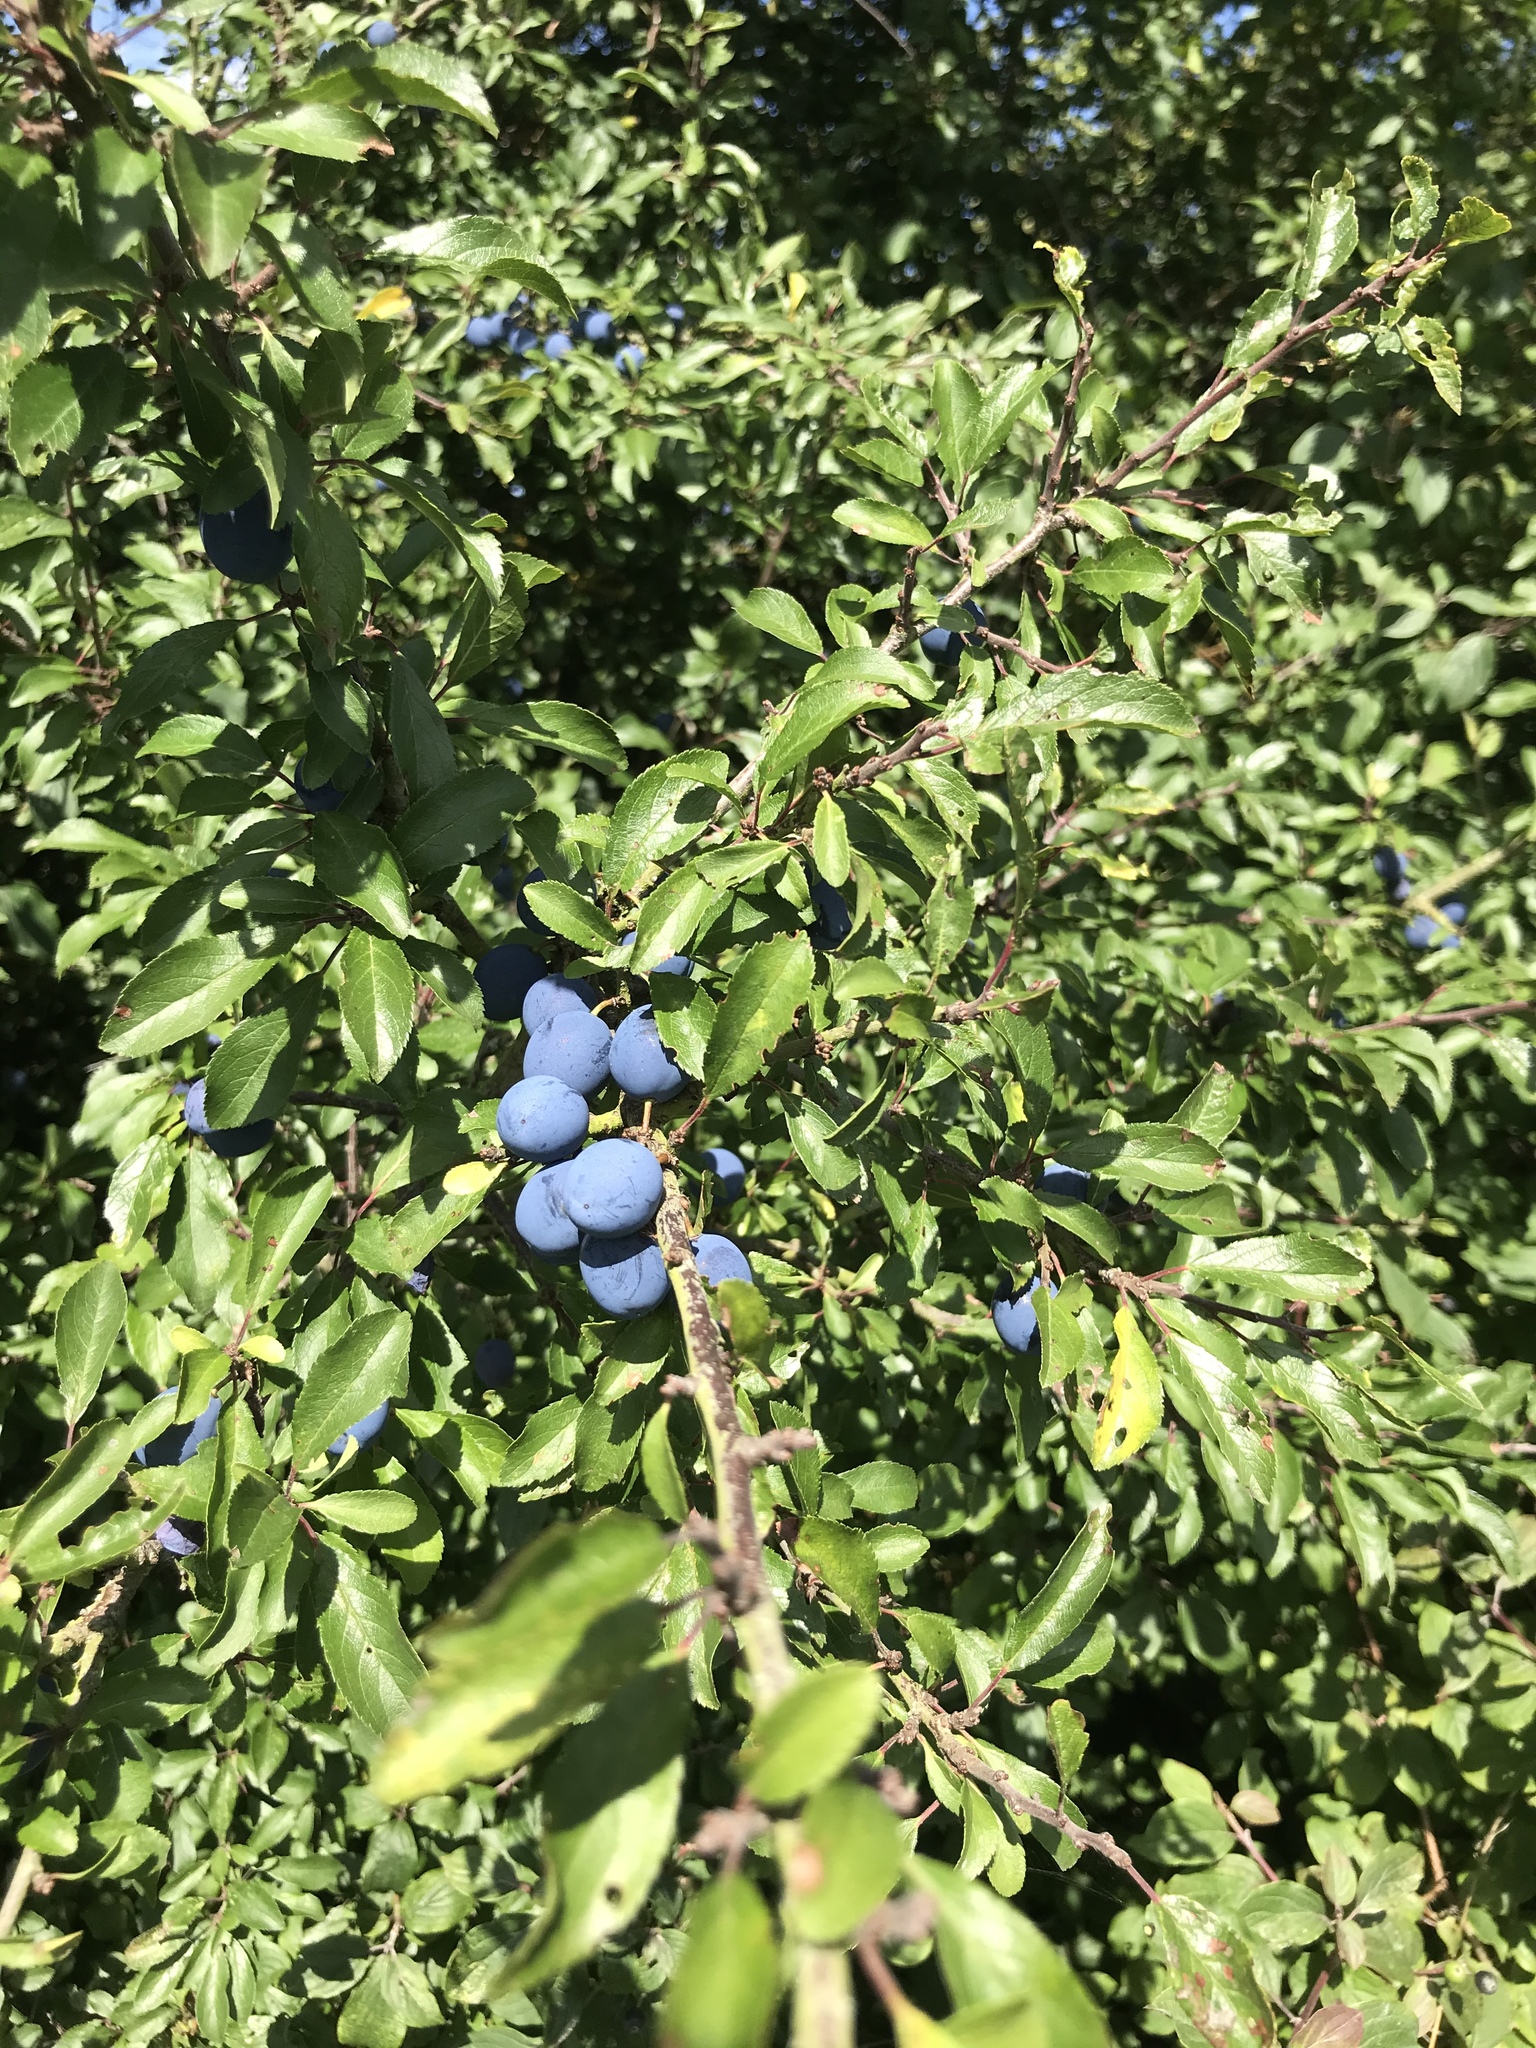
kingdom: Plantae
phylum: Tracheophyta
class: Magnoliopsida
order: Rosales
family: Rosaceae
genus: Prunus
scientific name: Prunus spinosa
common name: Blackthorn
